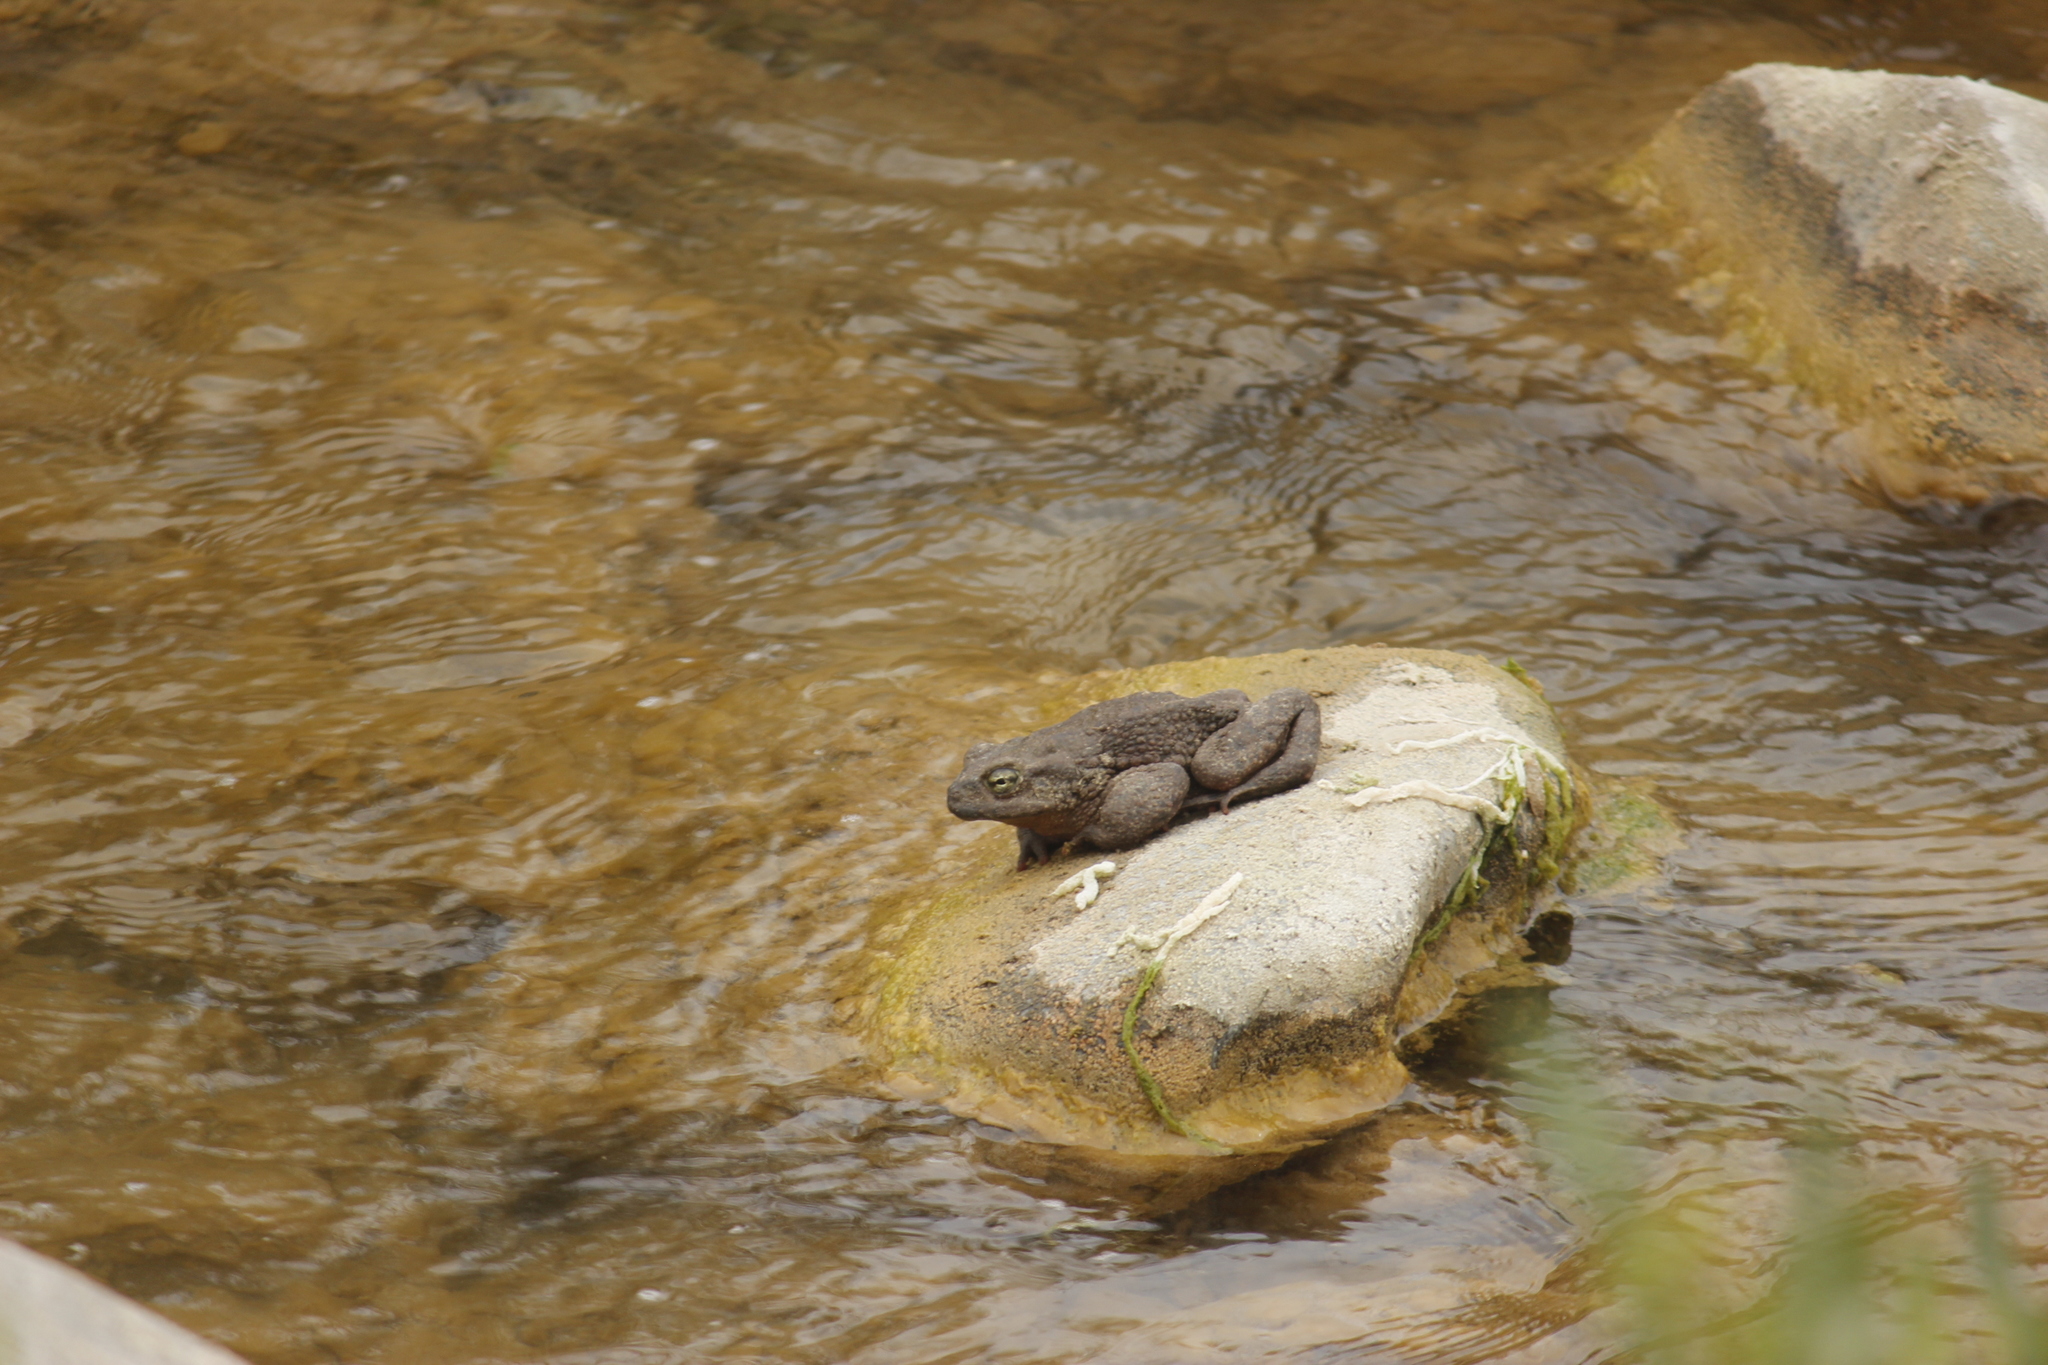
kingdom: Animalia
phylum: Chordata
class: Amphibia
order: Anura
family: Bufonidae
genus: Rhinella
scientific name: Rhinella limensis
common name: Peru coast toad
